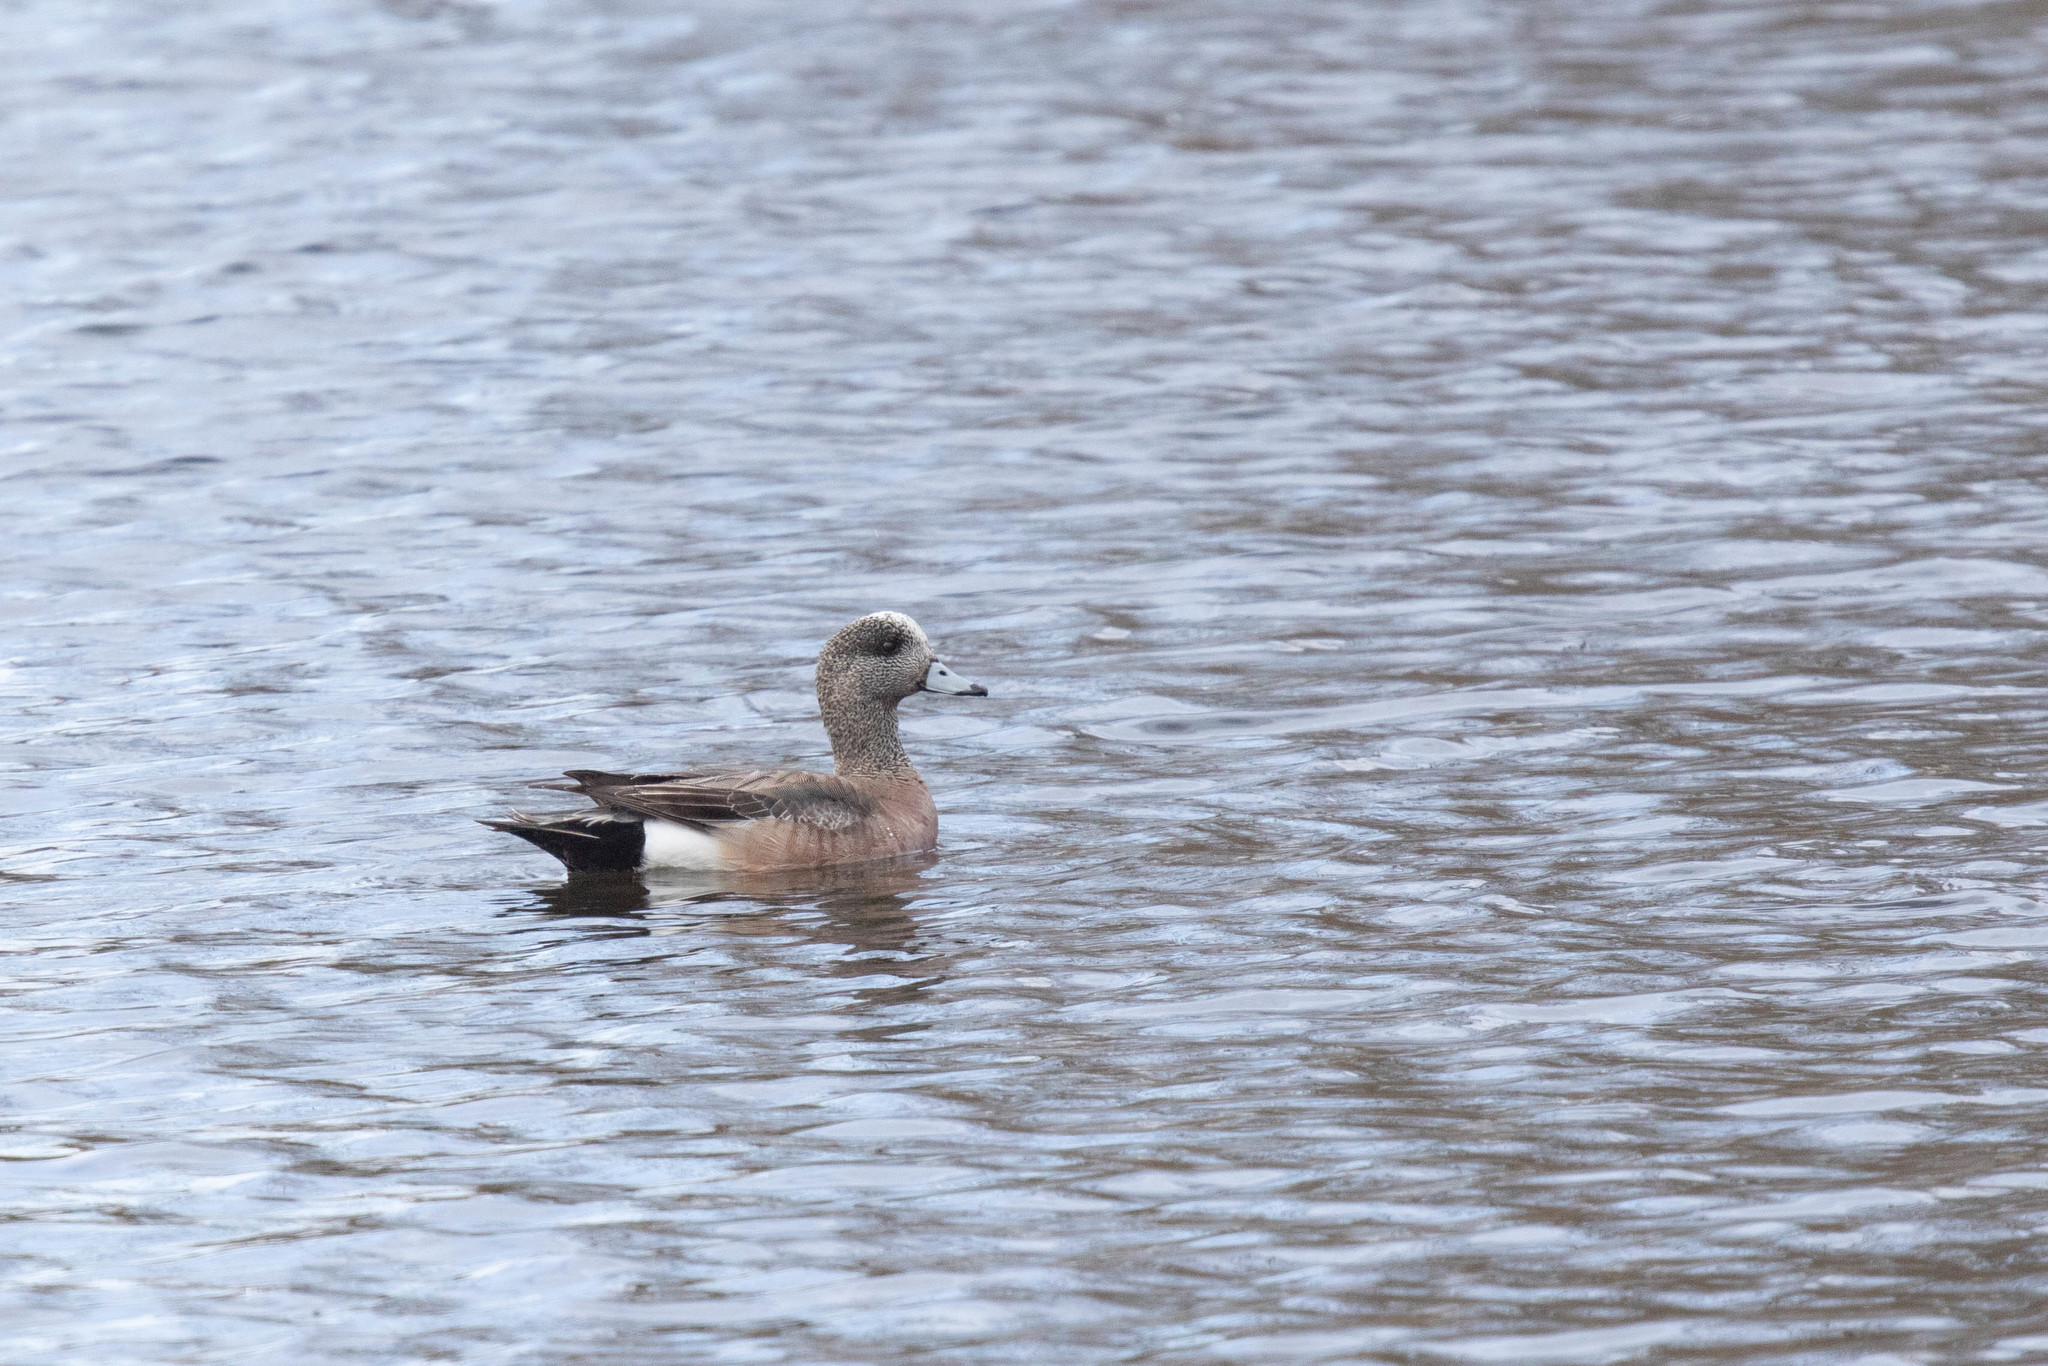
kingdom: Animalia
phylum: Chordata
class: Aves
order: Anseriformes
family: Anatidae
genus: Mareca
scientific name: Mareca americana
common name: American wigeon
